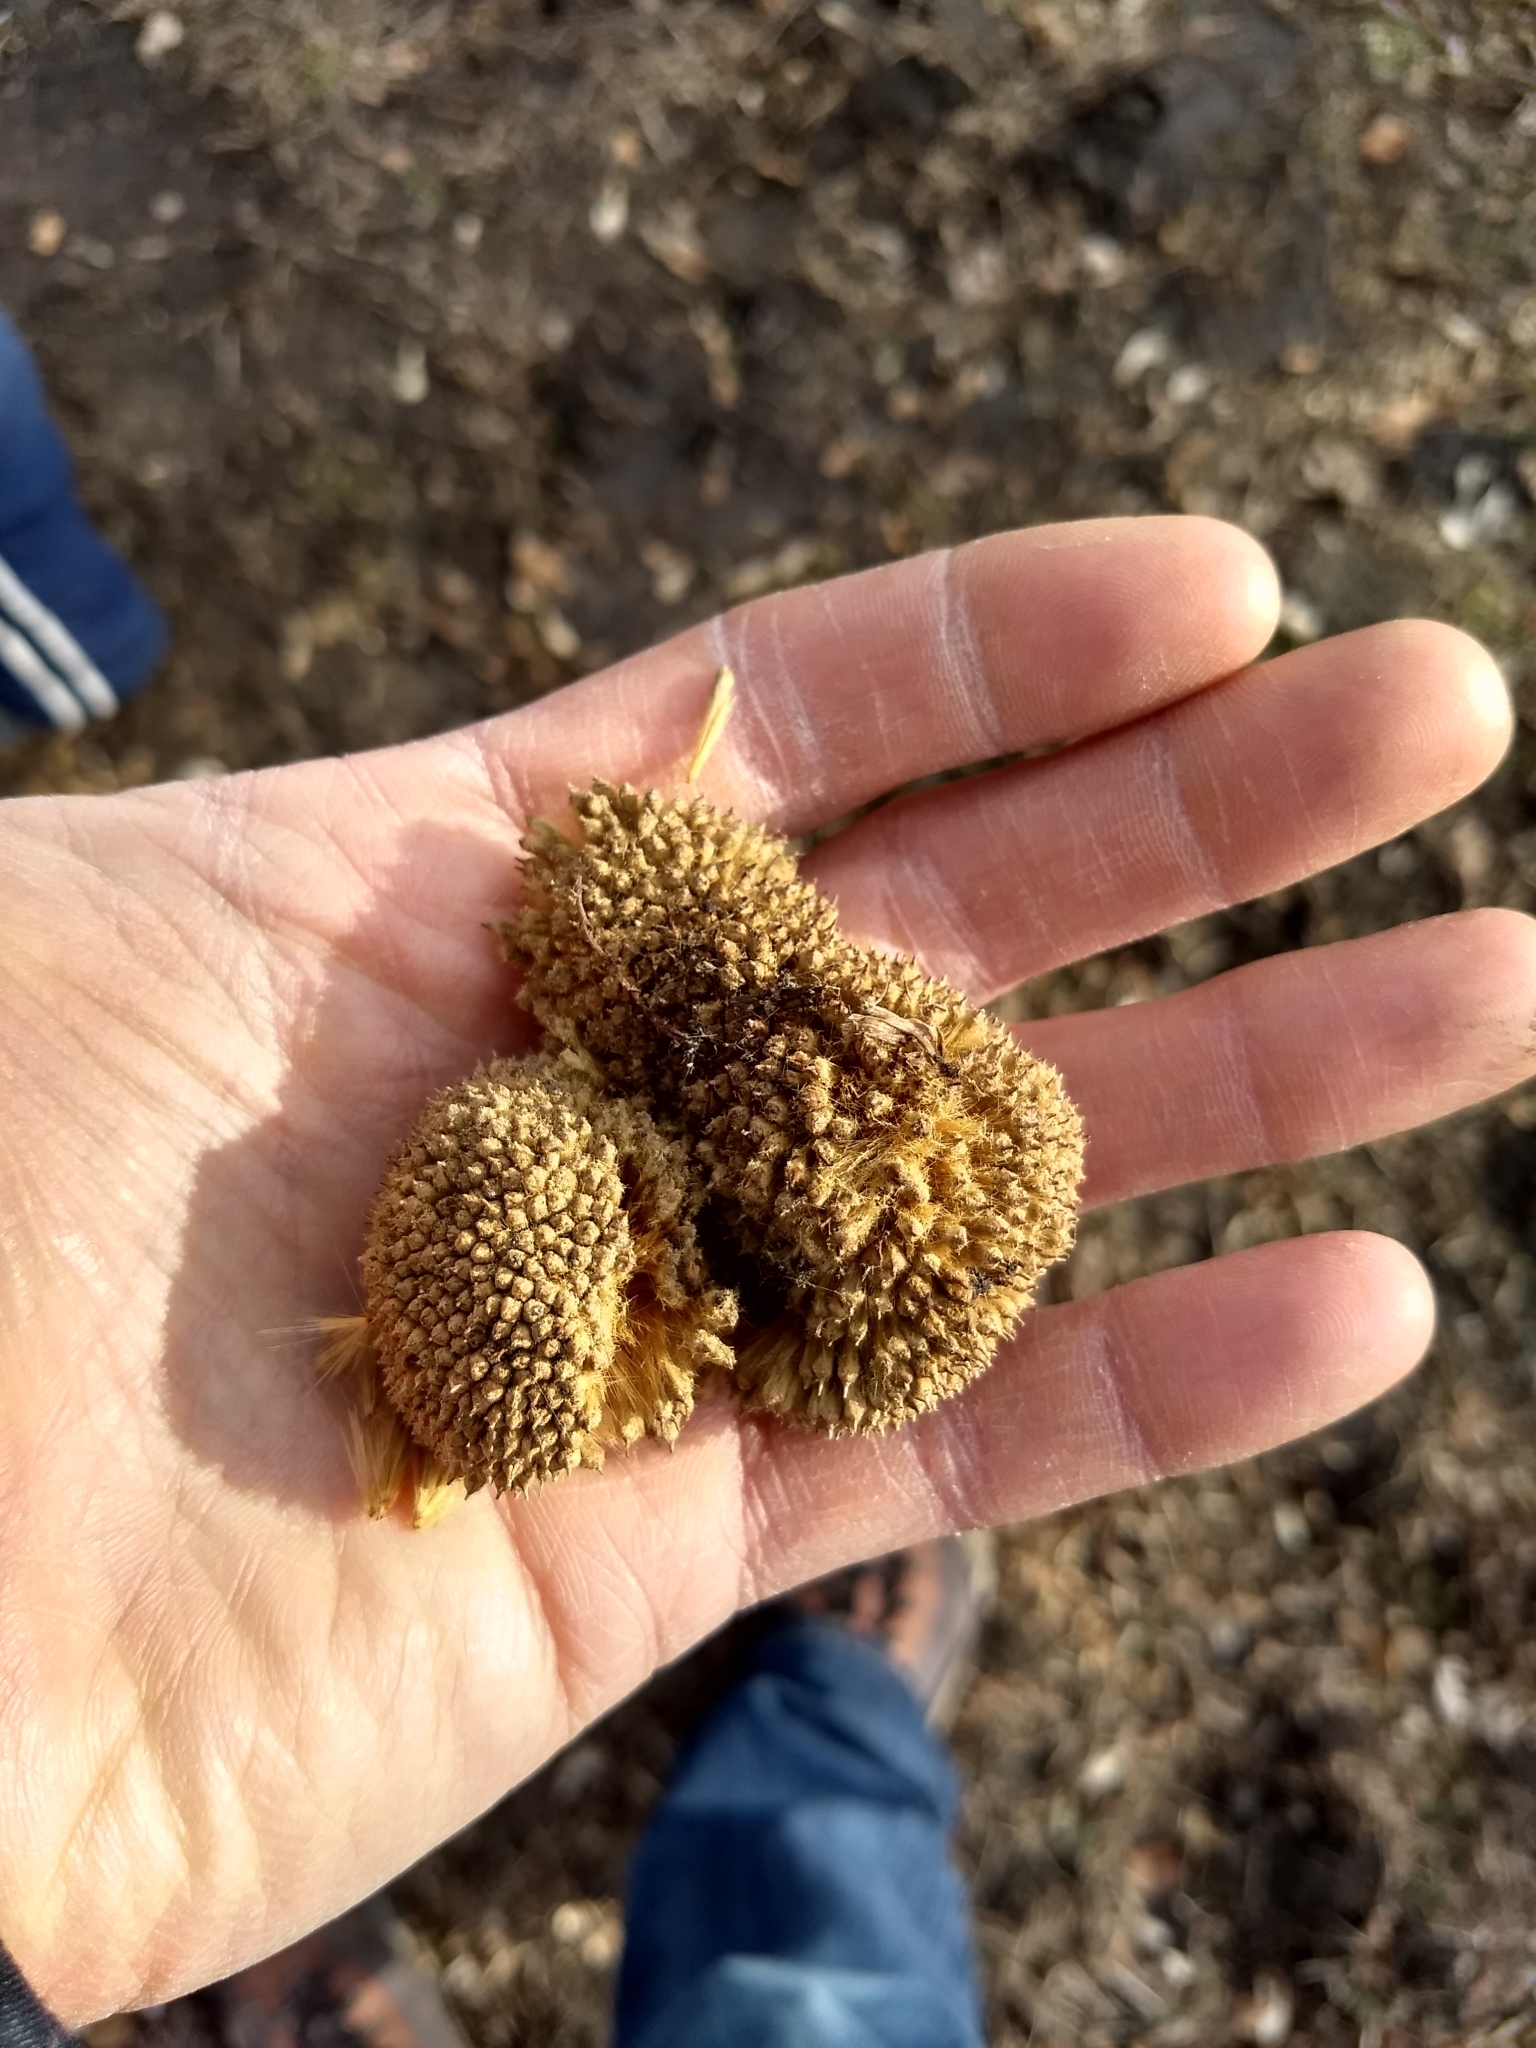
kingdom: Plantae
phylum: Tracheophyta
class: Magnoliopsida
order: Proteales
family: Platanaceae
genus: Platanus
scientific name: Platanus occidentalis
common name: American sycamore
